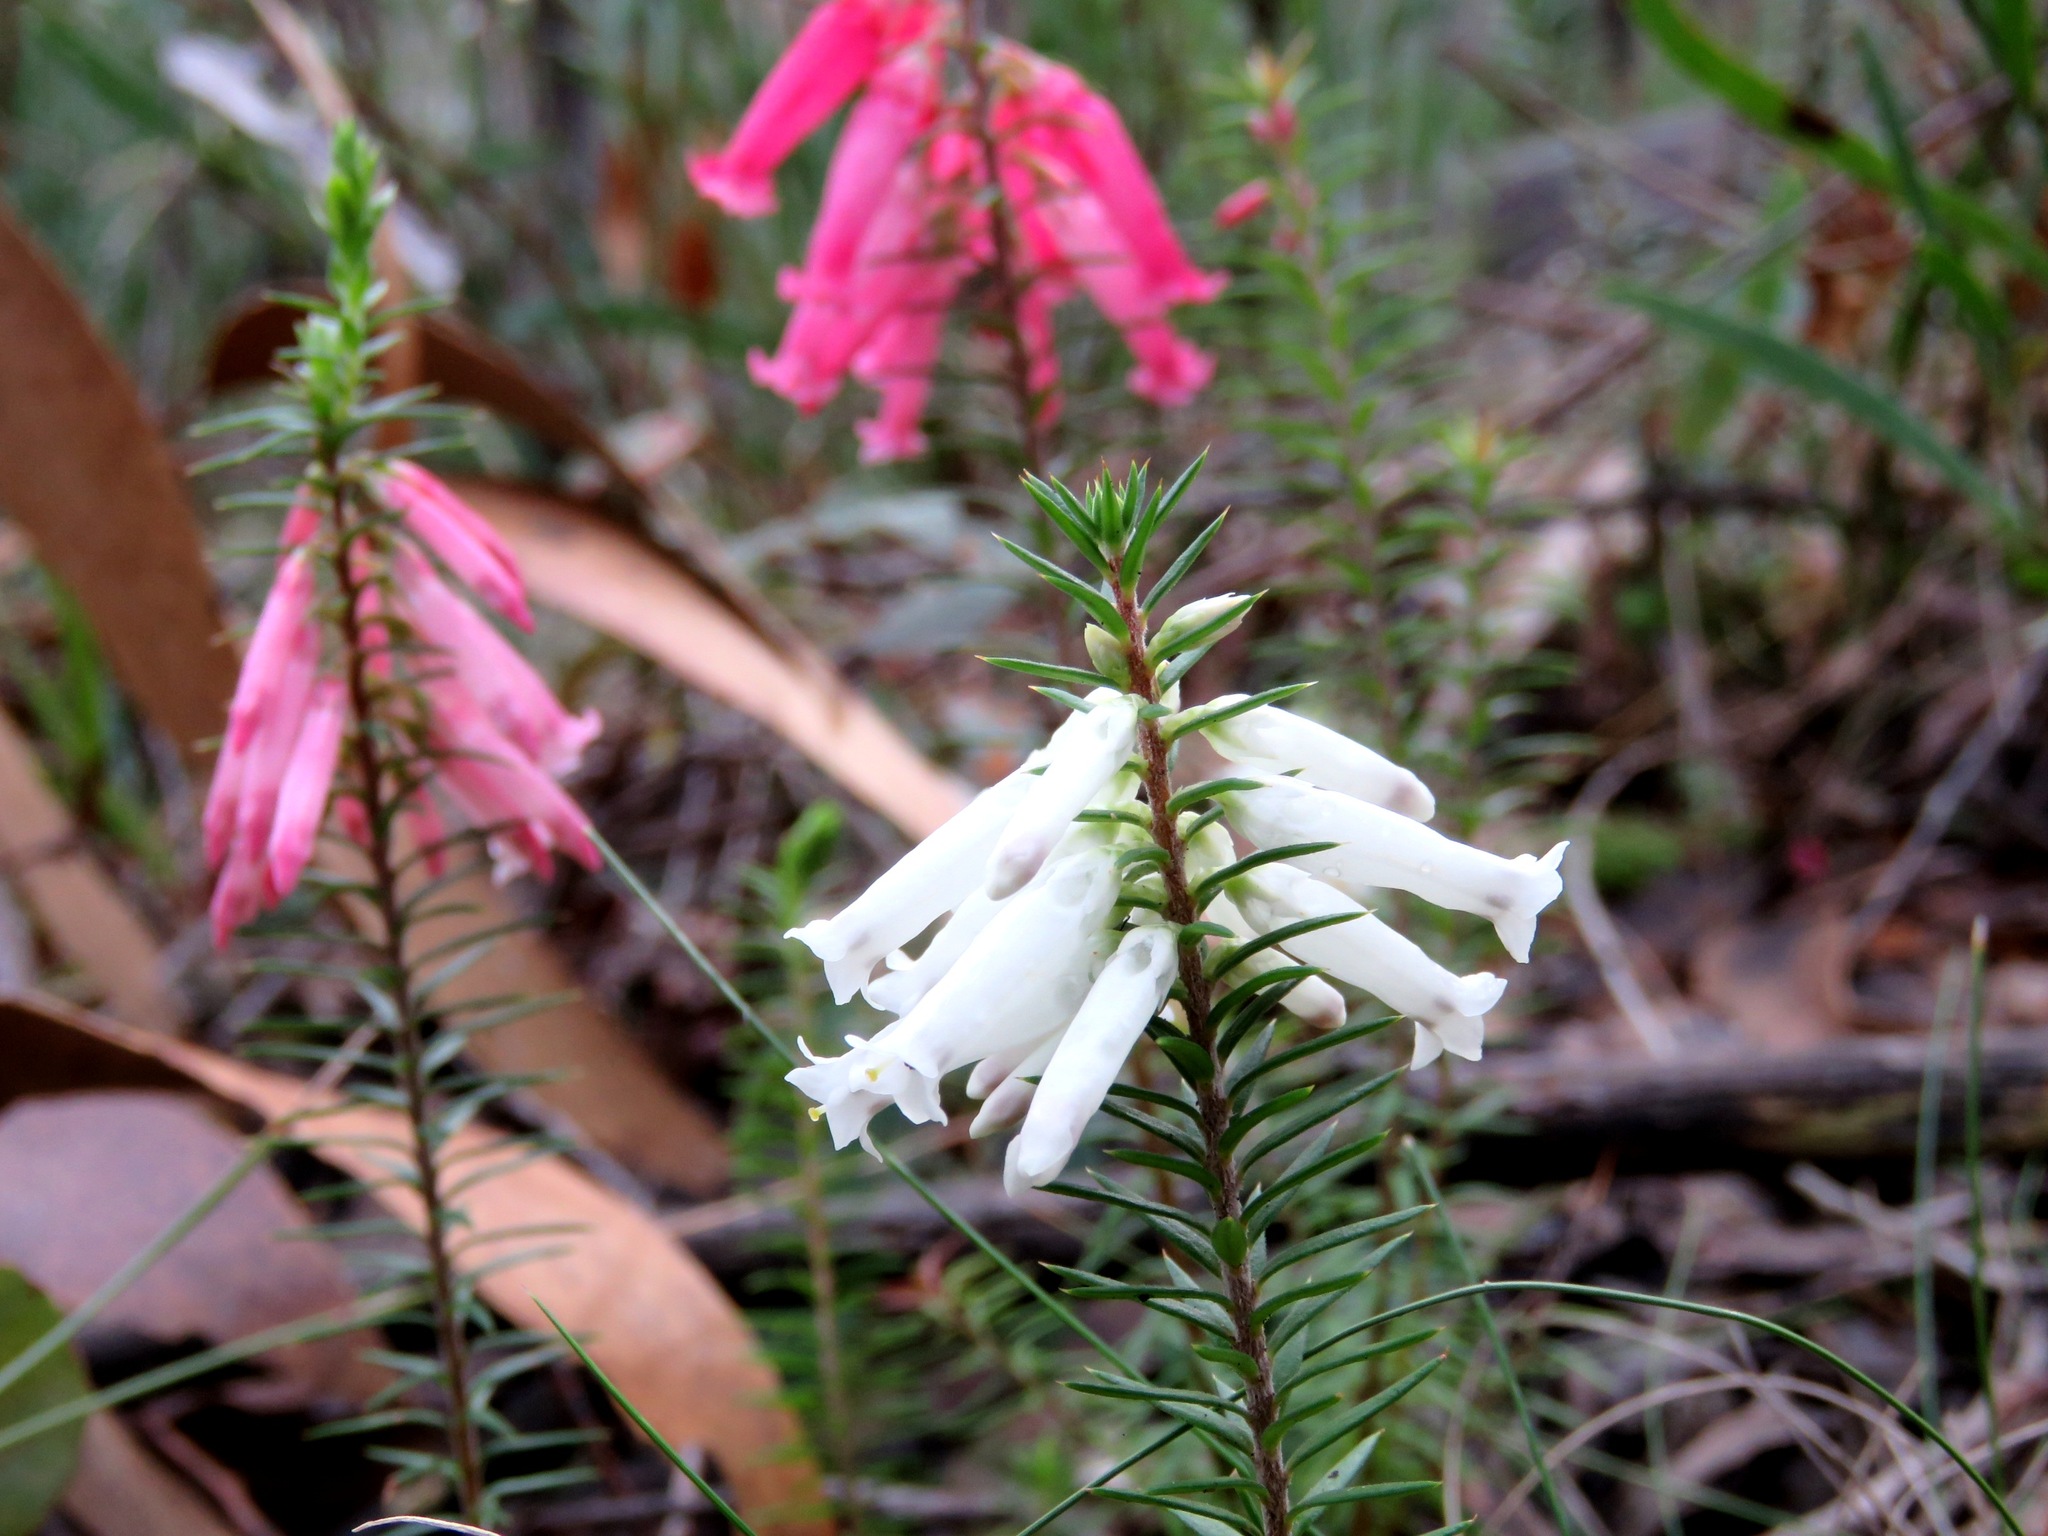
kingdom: Plantae
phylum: Tracheophyta
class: Magnoliopsida
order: Ericales
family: Ericaceae
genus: Epacris
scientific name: Epacris impressa
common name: Common-heath
